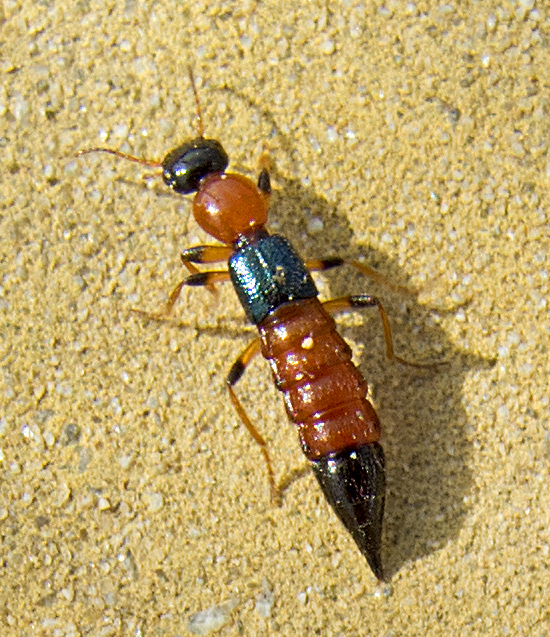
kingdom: Animalia
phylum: Arthropoda
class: Insecta
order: Coleoptera
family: Staphylinidae
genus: Paederus
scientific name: Paederus littoralis
